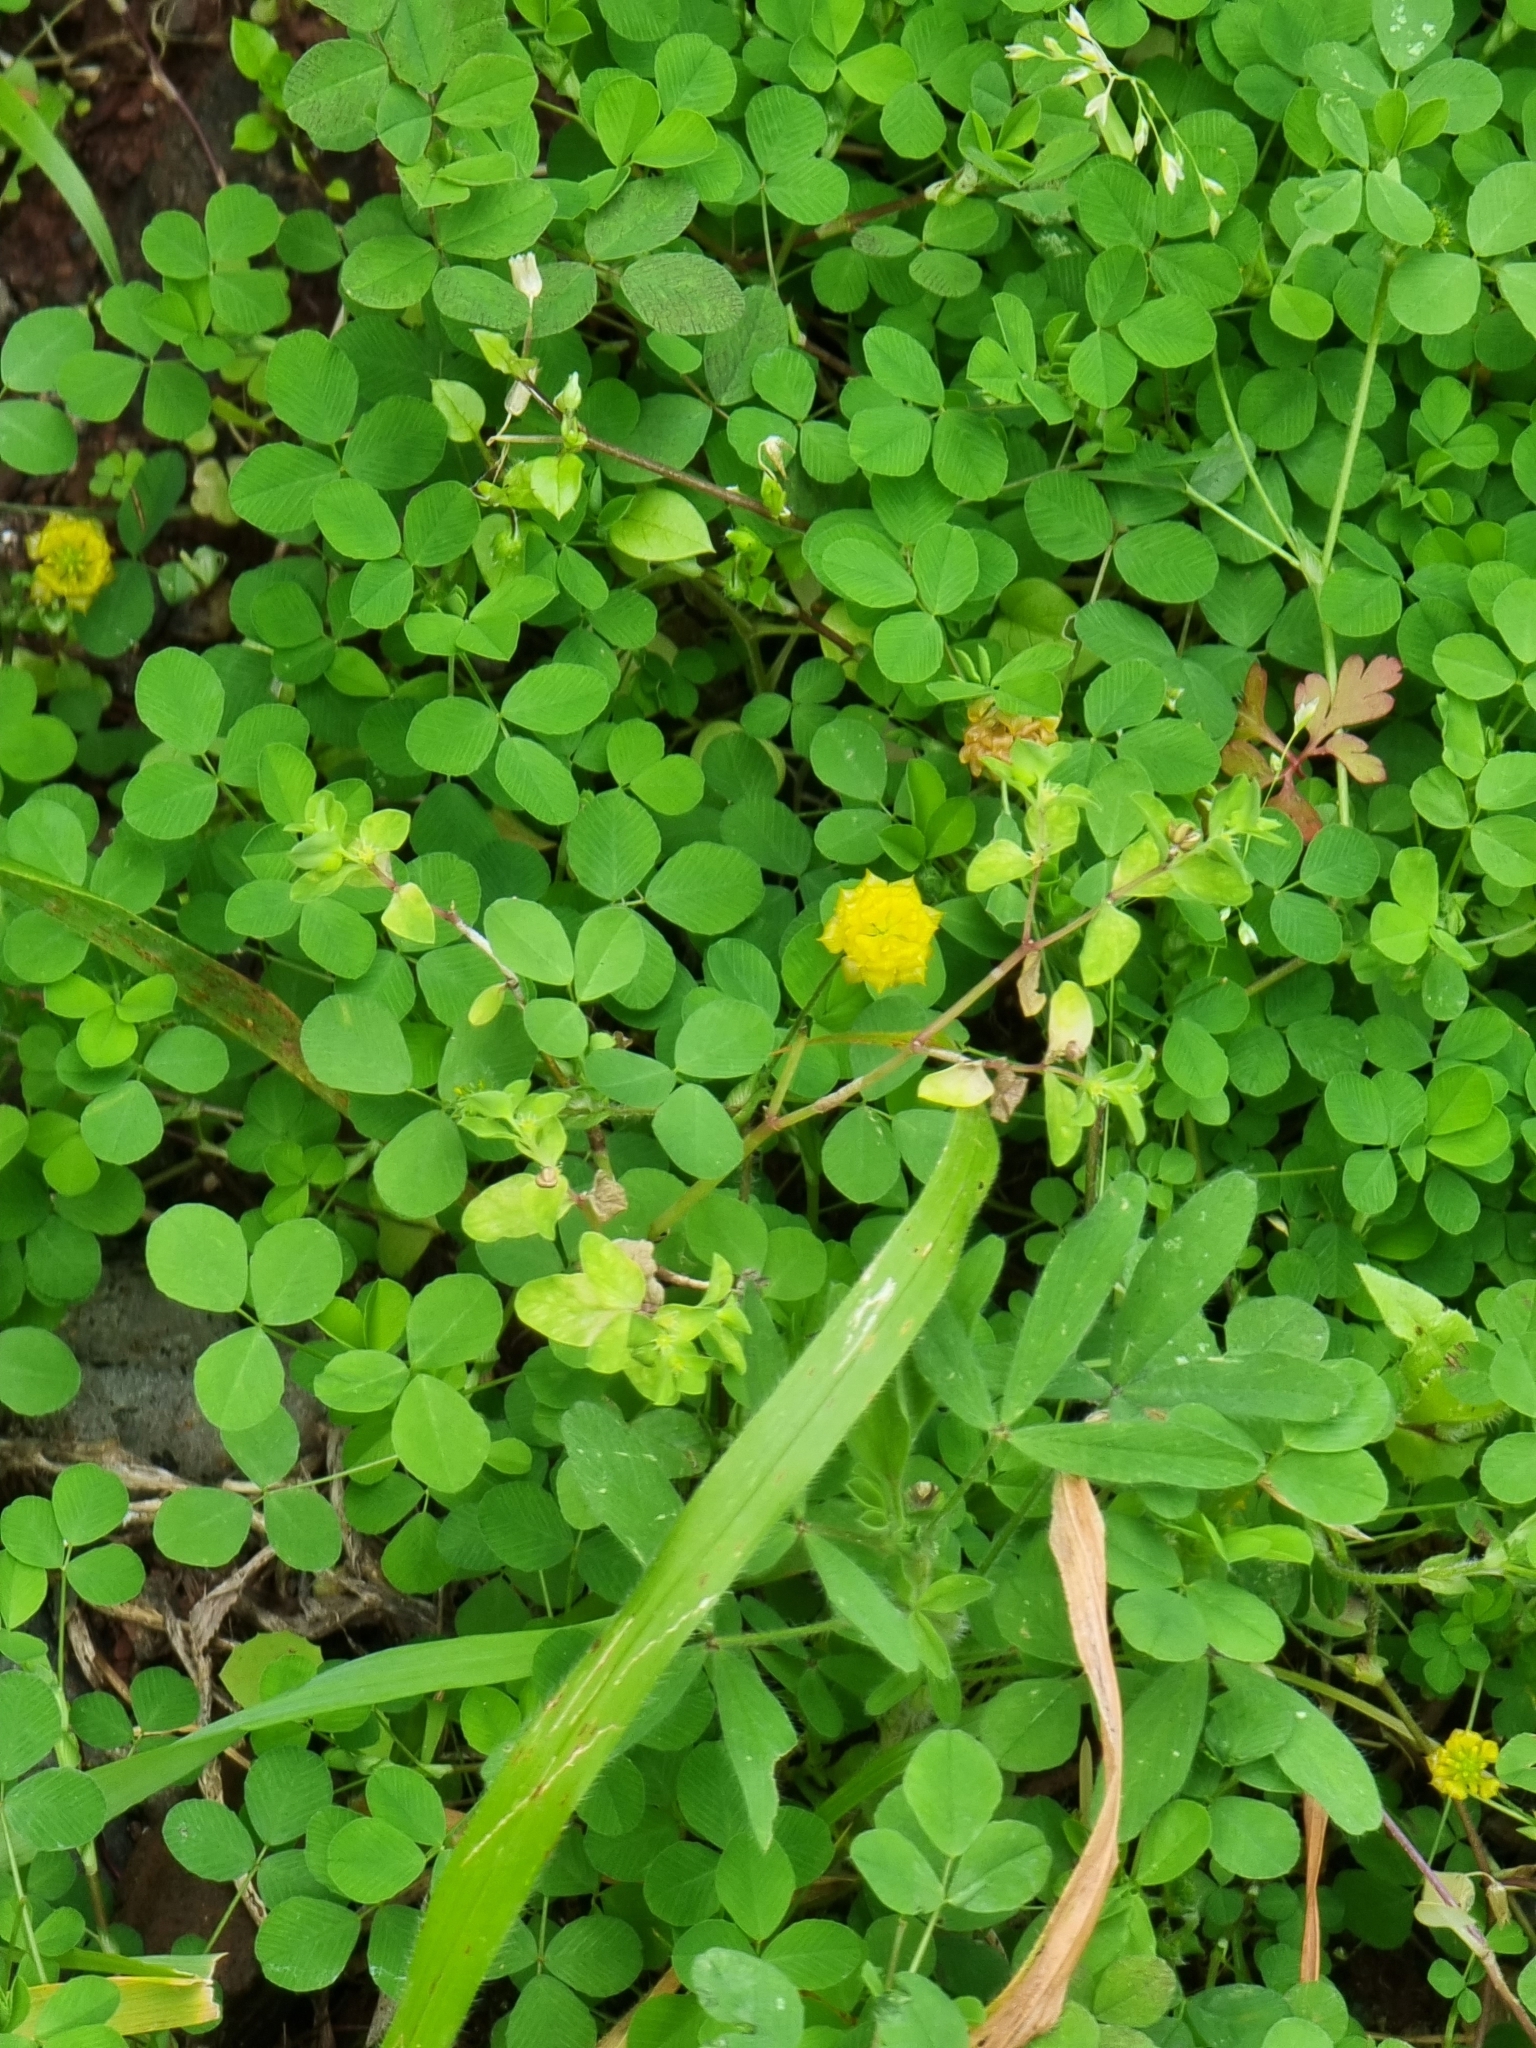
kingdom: Plantae
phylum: Tracheophyta
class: Magnoliopsida
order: Fabales
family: Fabaceae
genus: Trifolium
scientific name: Trifolium campestre
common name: Field clover
